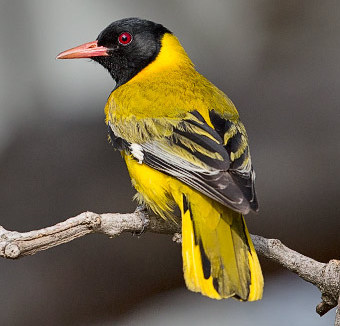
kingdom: Animalia
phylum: Chordata
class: Aves
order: Passeriformes
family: Oriolidae
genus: Oriolus
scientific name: Oriolus larvatus
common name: Black-headed oriole
